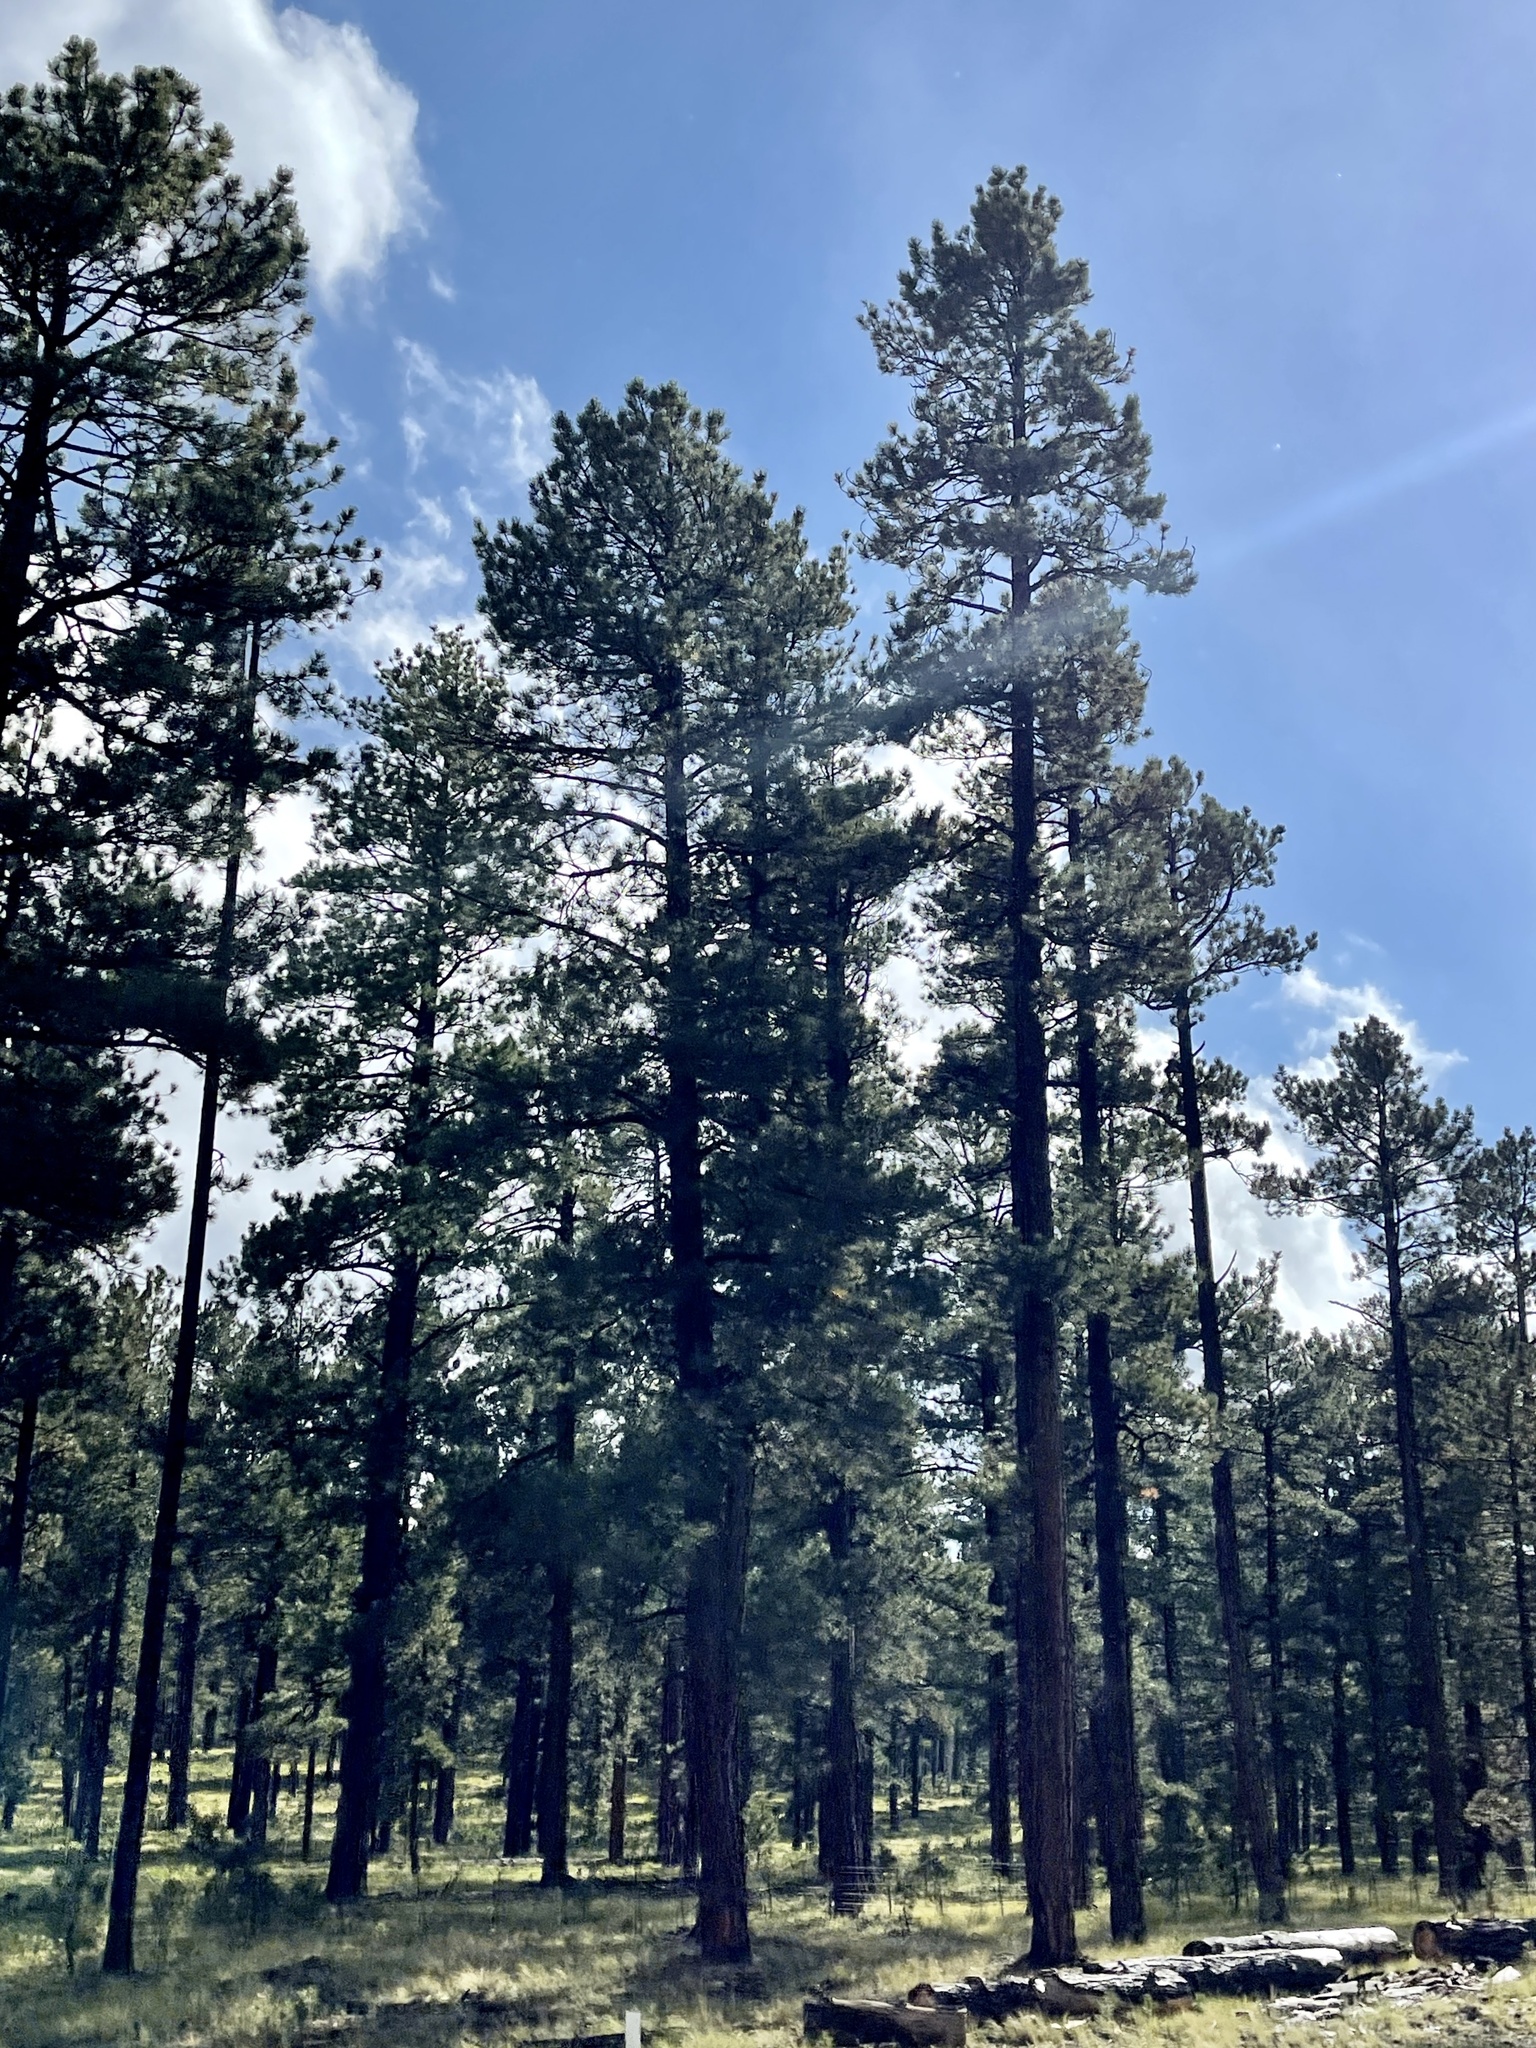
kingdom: Plantae
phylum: Tracheophyta
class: Pinopsida
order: Pinales
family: Pinaceae
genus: Pinus
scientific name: Pinus ponderosa
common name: Western yellow-pine
